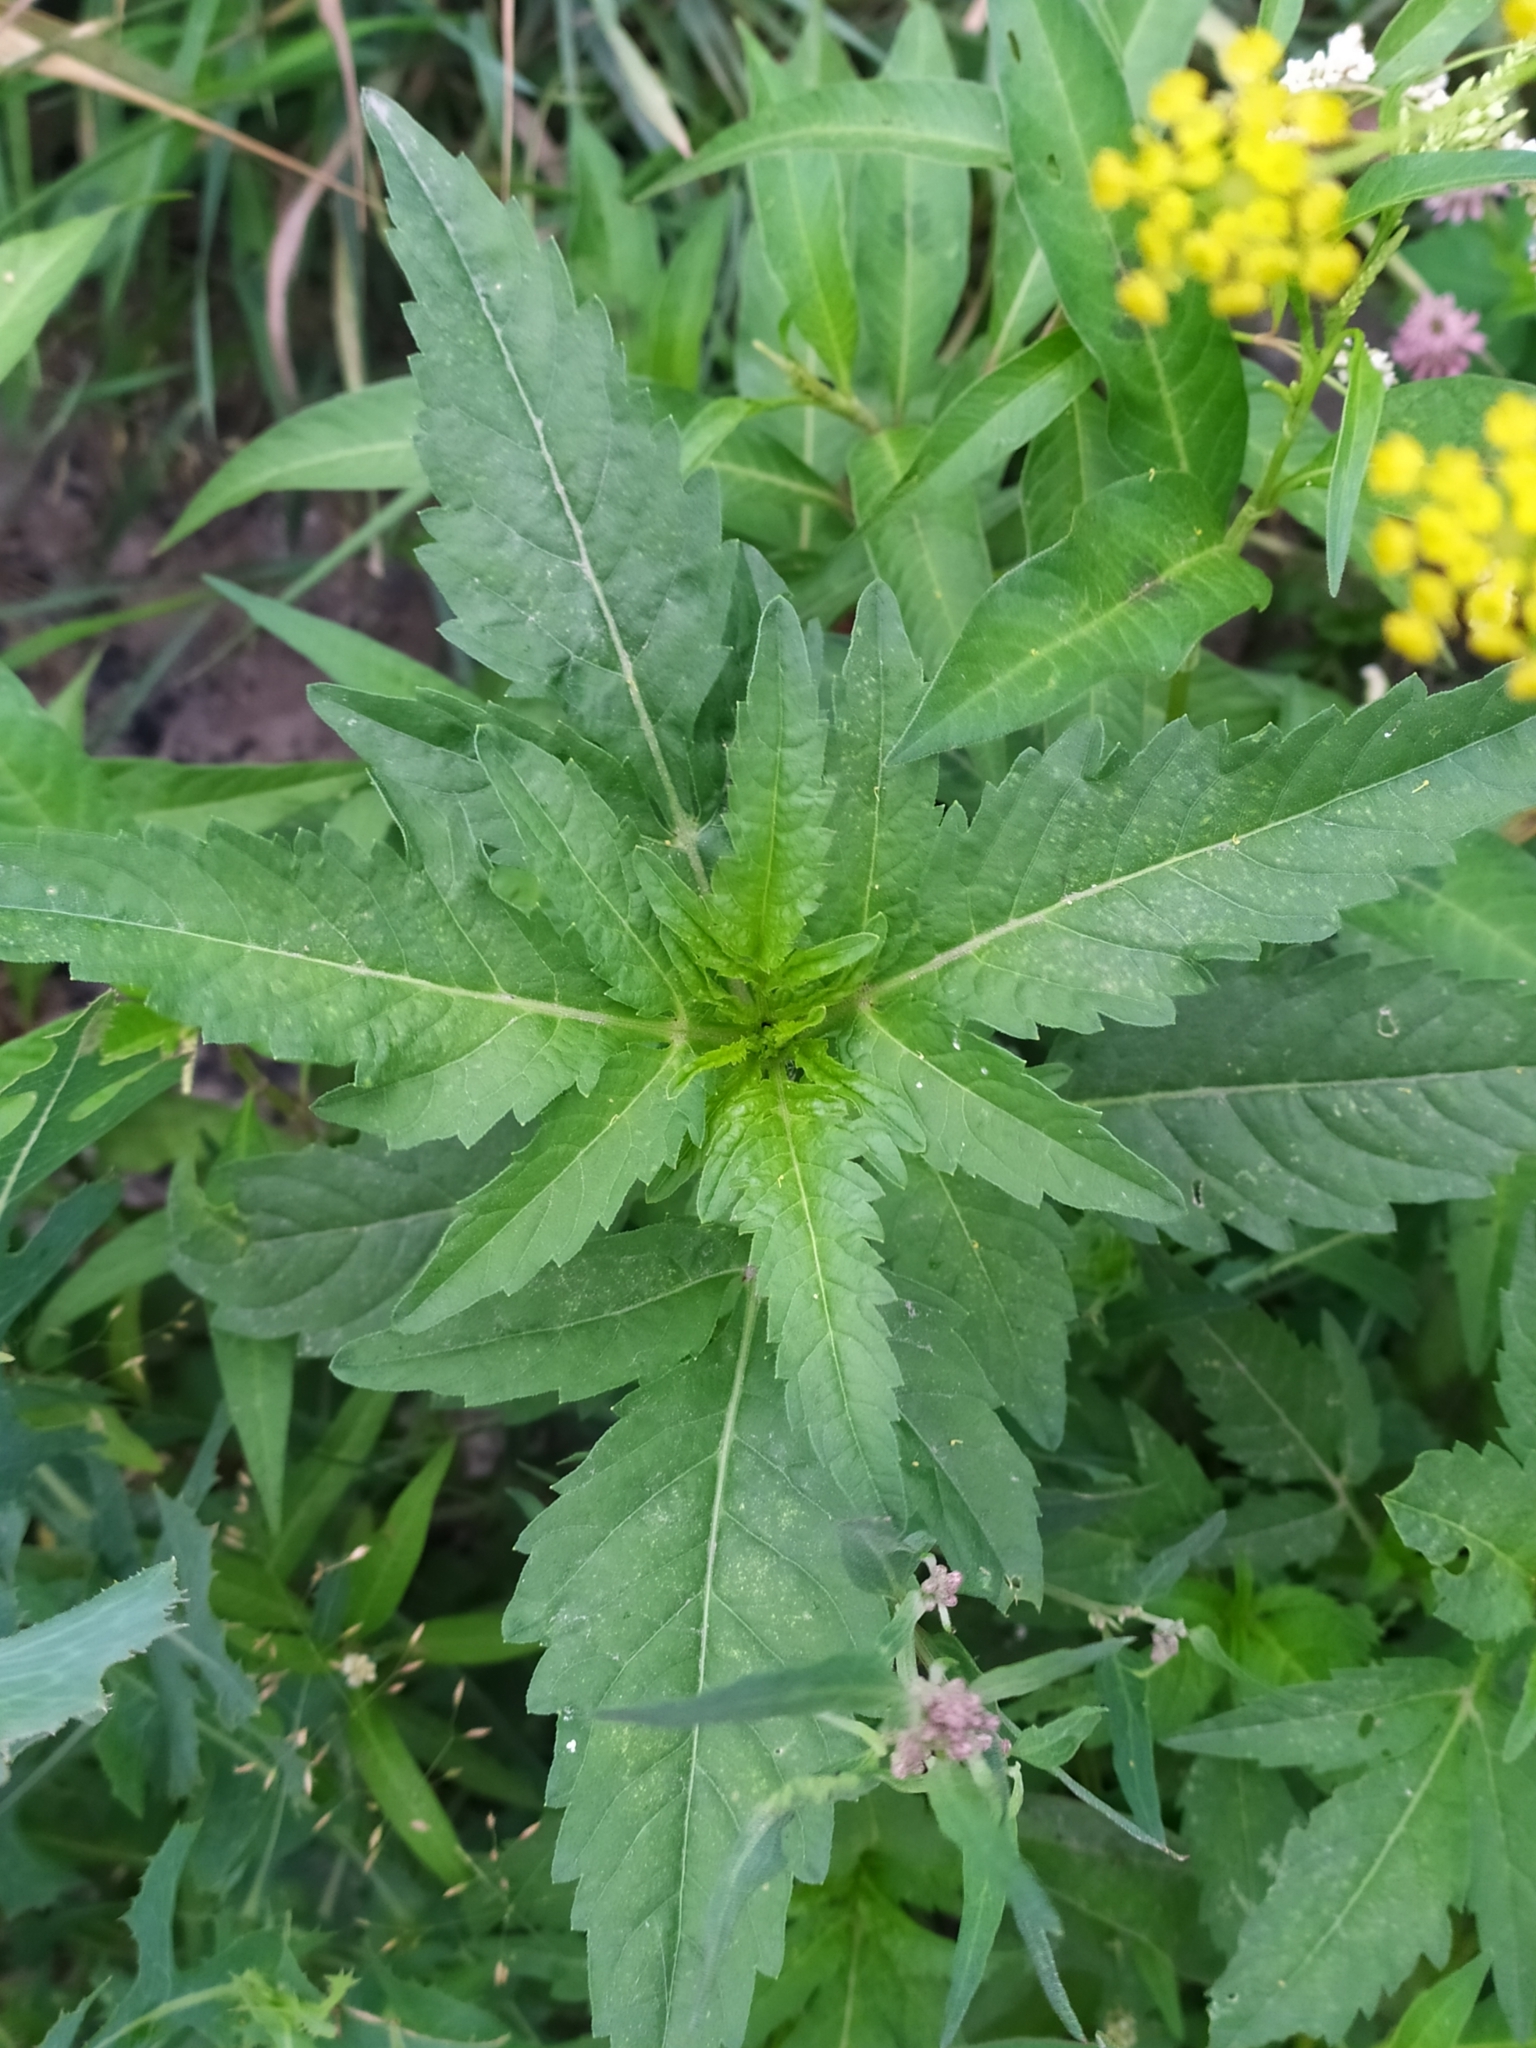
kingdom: Plantae
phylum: Tracheophyta
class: Magnoliopsida
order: Asterales
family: Asteraceae
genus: Bidens
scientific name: Bidens tripartita
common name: Trifid bur-marigold
